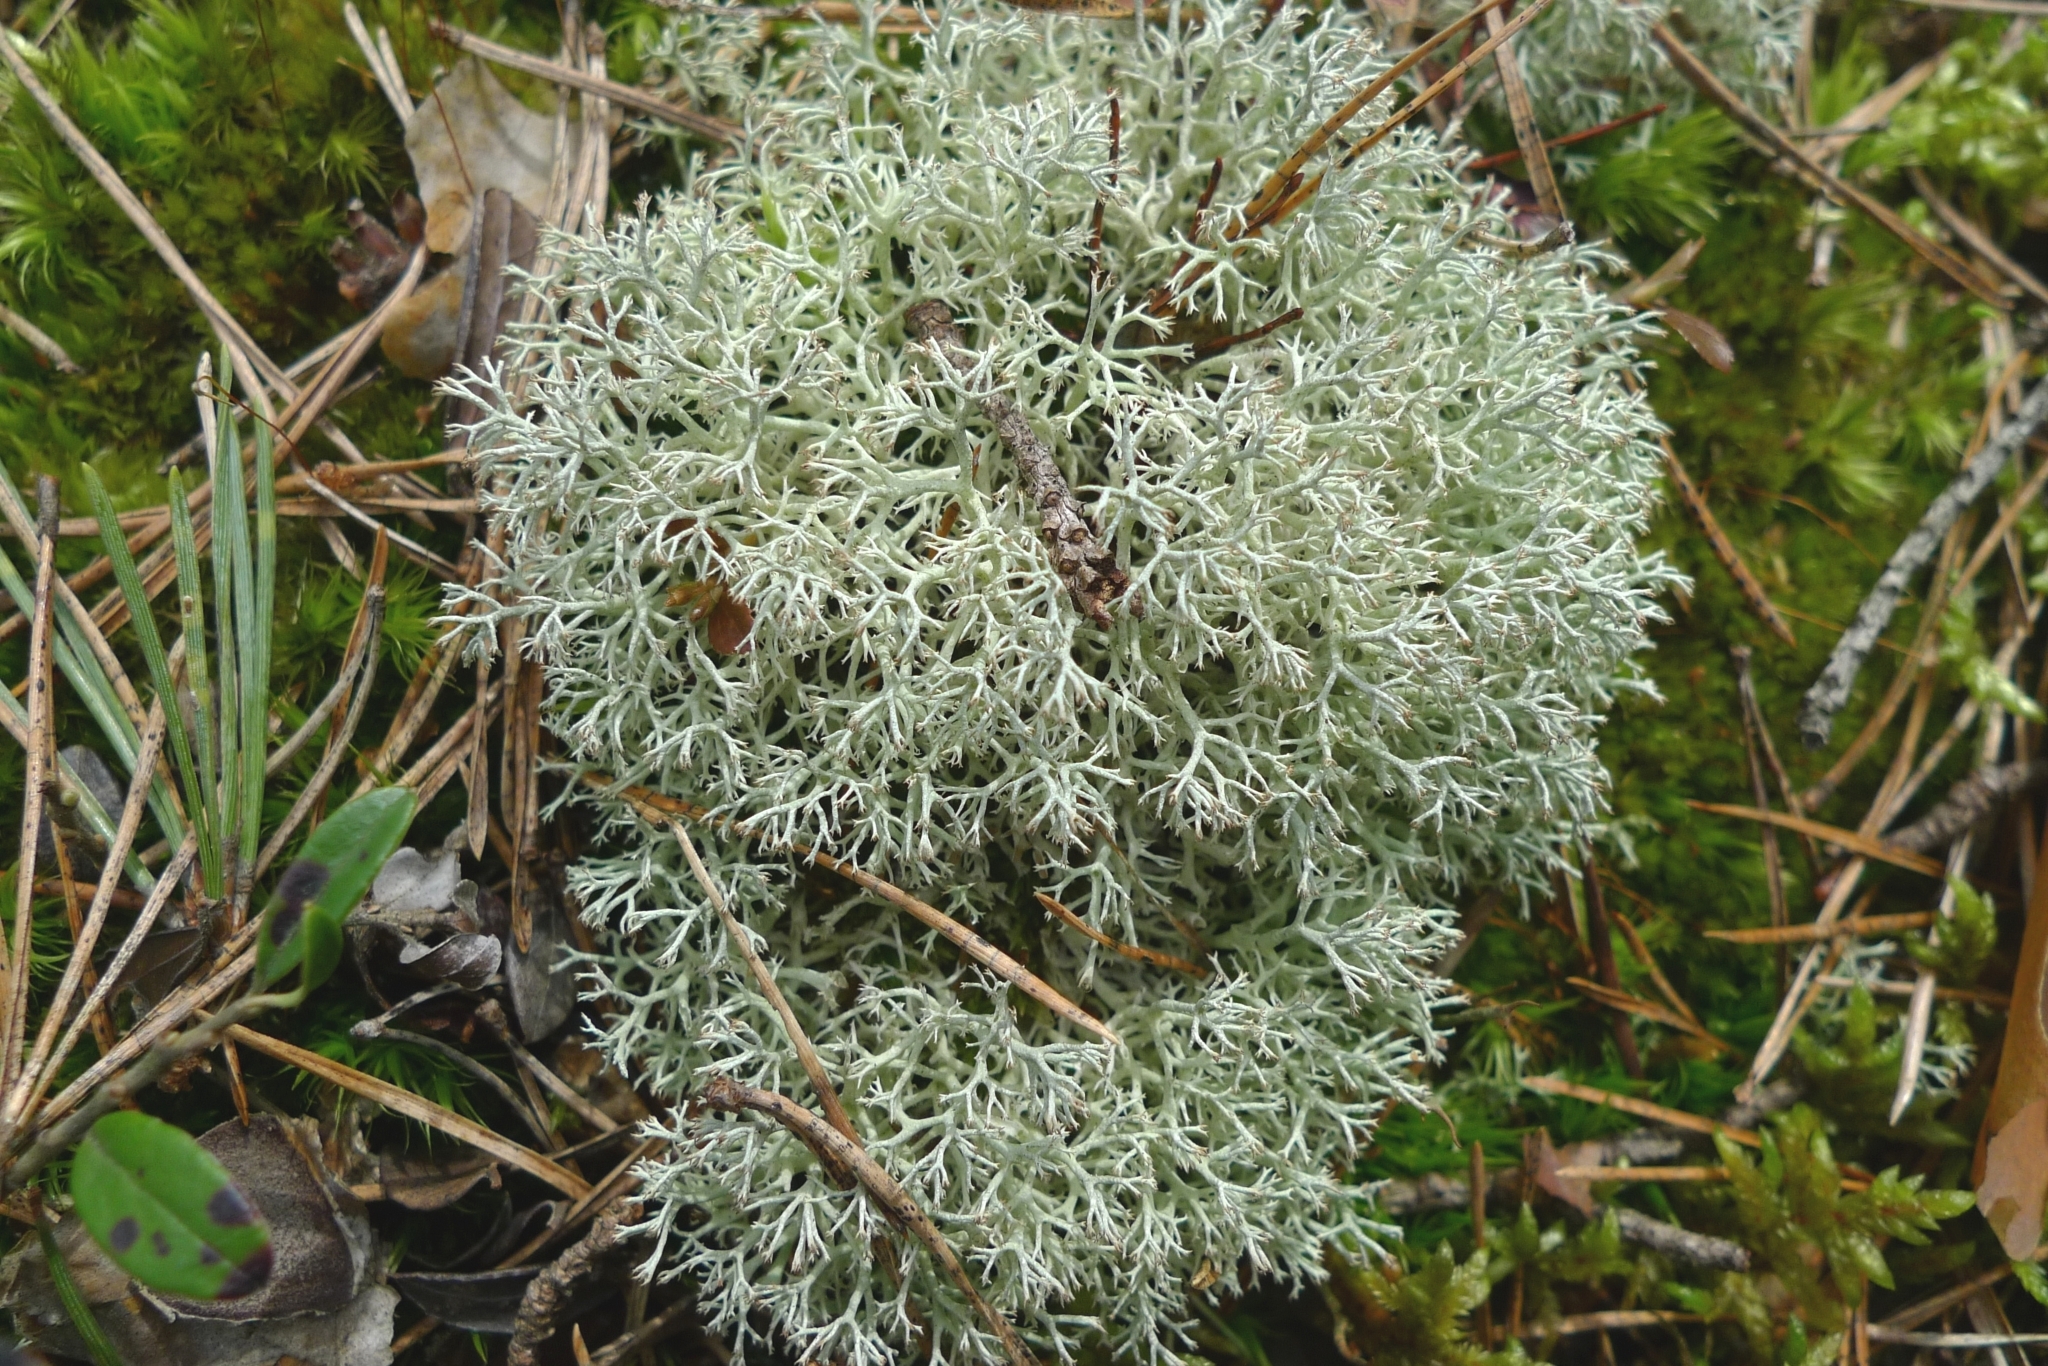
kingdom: Fungi
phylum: Ascomycota
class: Lecanoromycetes
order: Lecanorales
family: Cladoniaceae
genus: Cladonia
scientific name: Cladonia arbuscula
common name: Reindeer lichen
